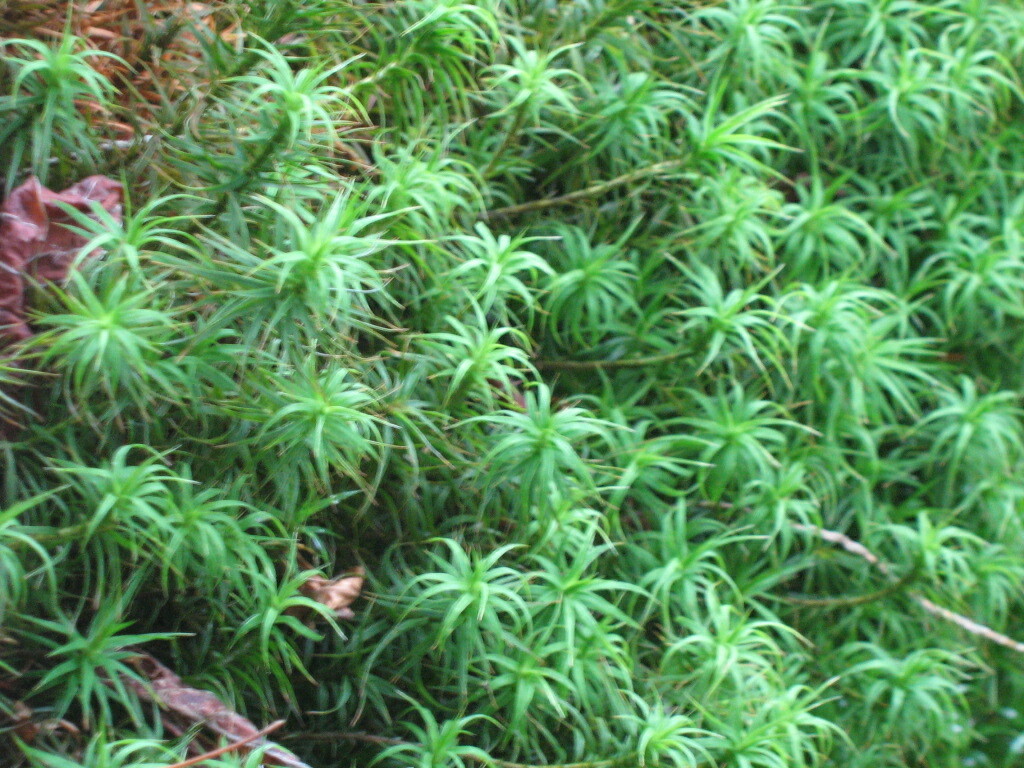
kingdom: Plantae
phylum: Bryophyta
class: Polytrichopsida
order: Polytrichales
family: Polytrichaceae
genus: Polytrichum
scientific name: Polytrichum commune
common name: Common haircap
